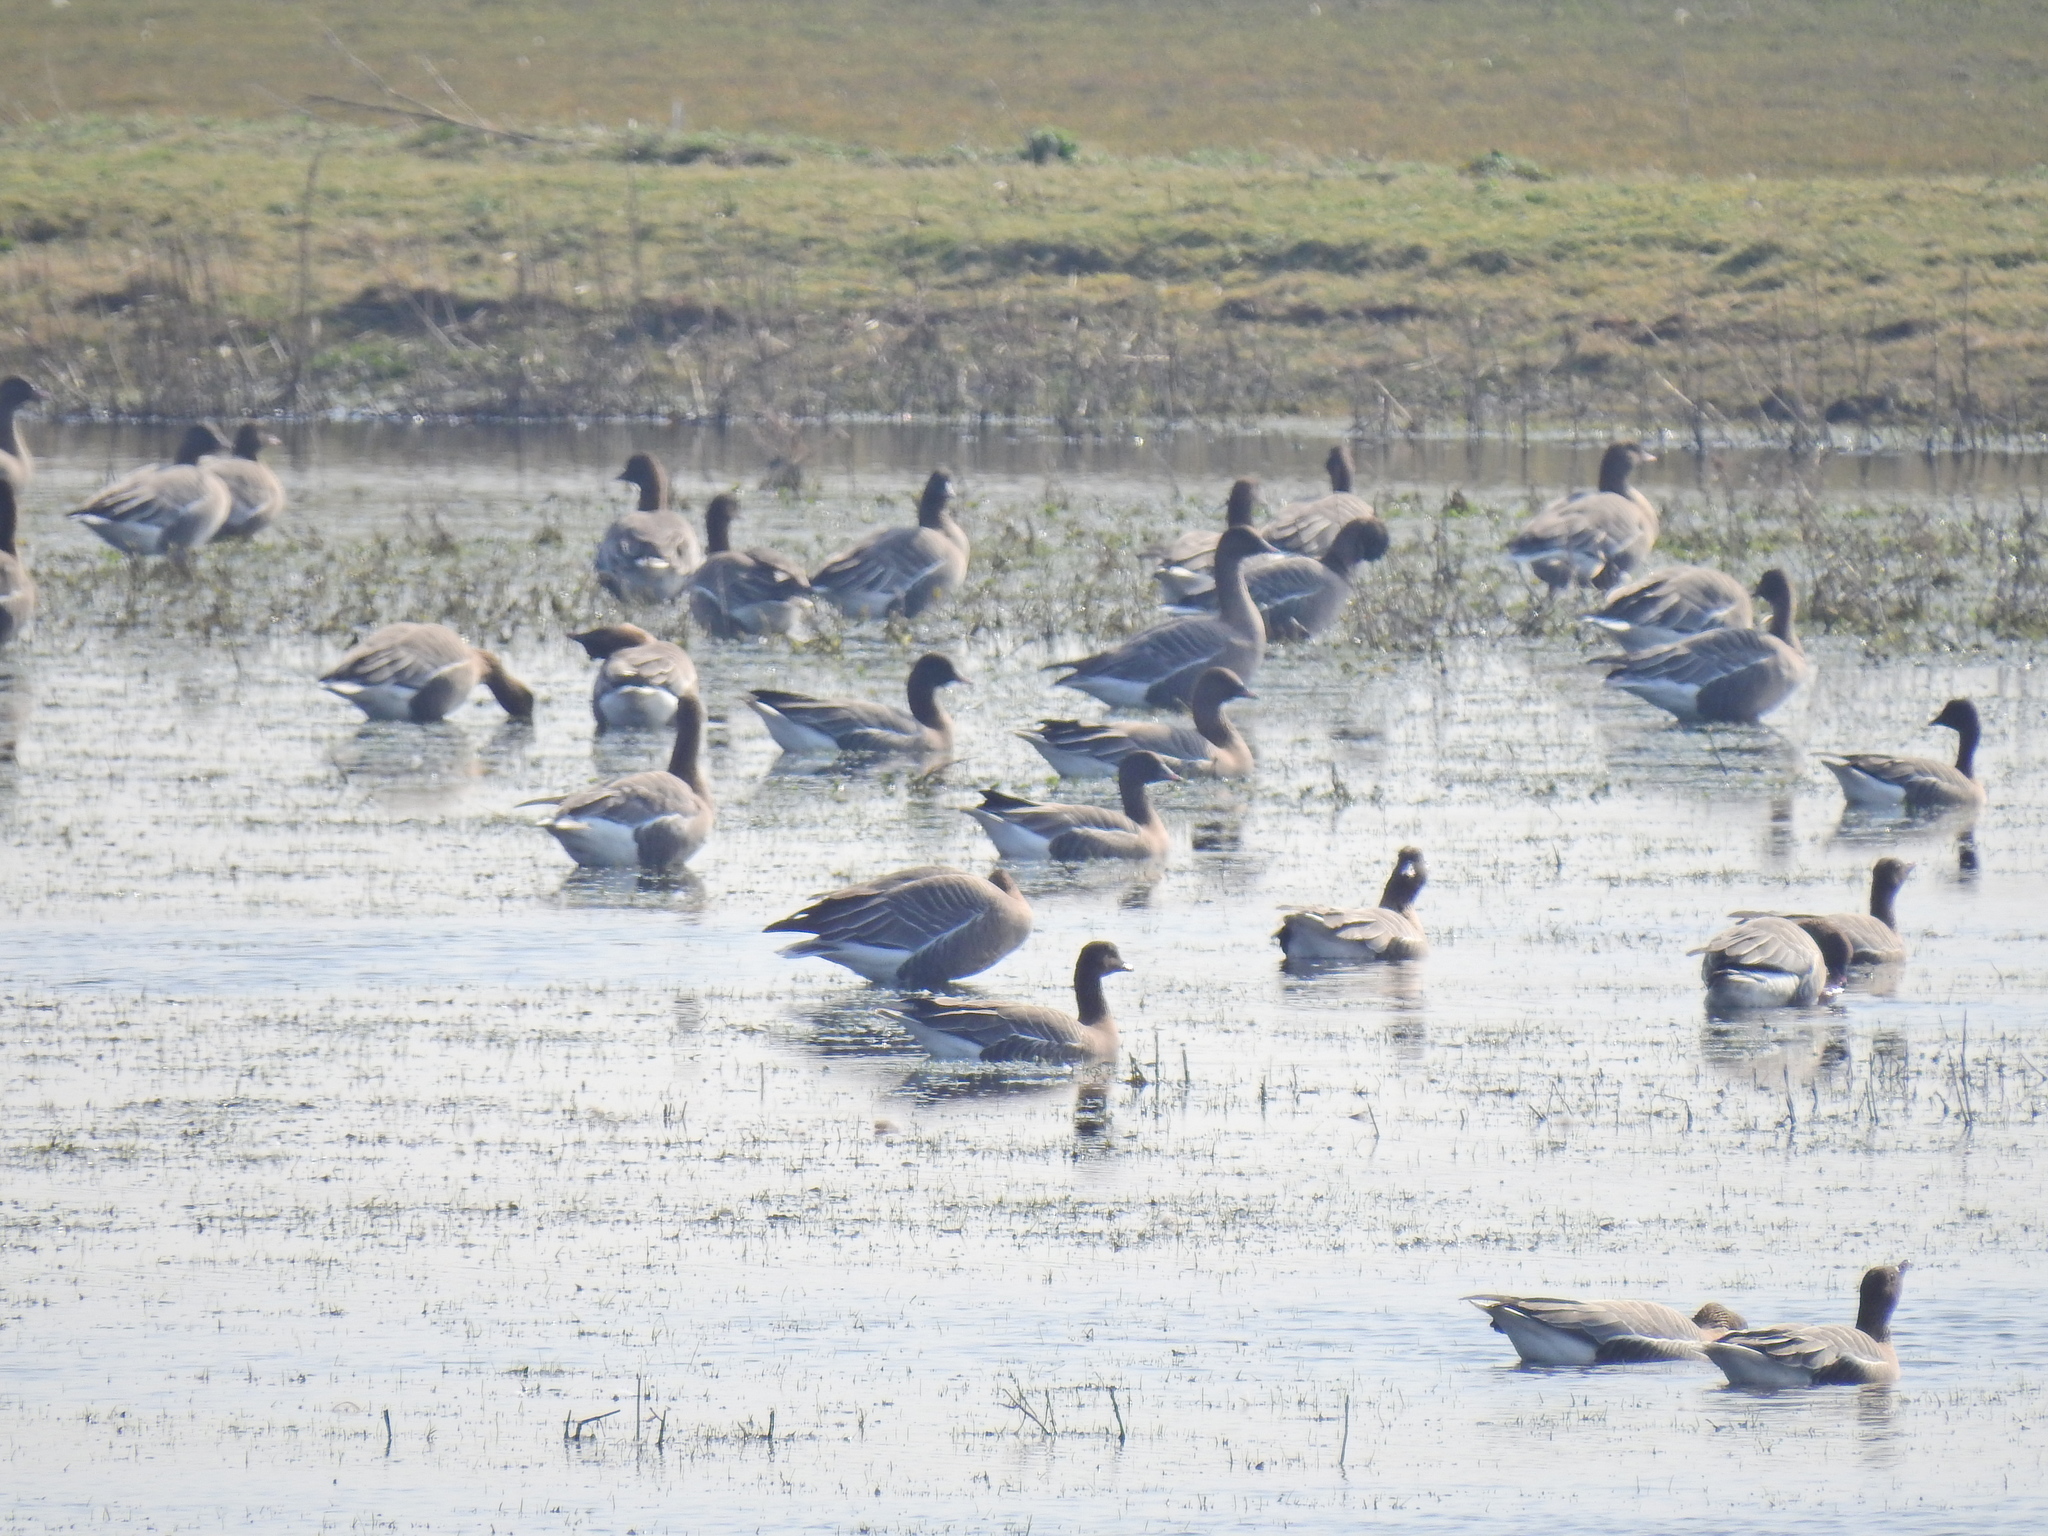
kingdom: Animalia
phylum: Chordata
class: Aves
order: Anseriformes
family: Anatidae
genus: Anser
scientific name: Anser brachyrhynchus
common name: Pink-footed goose
